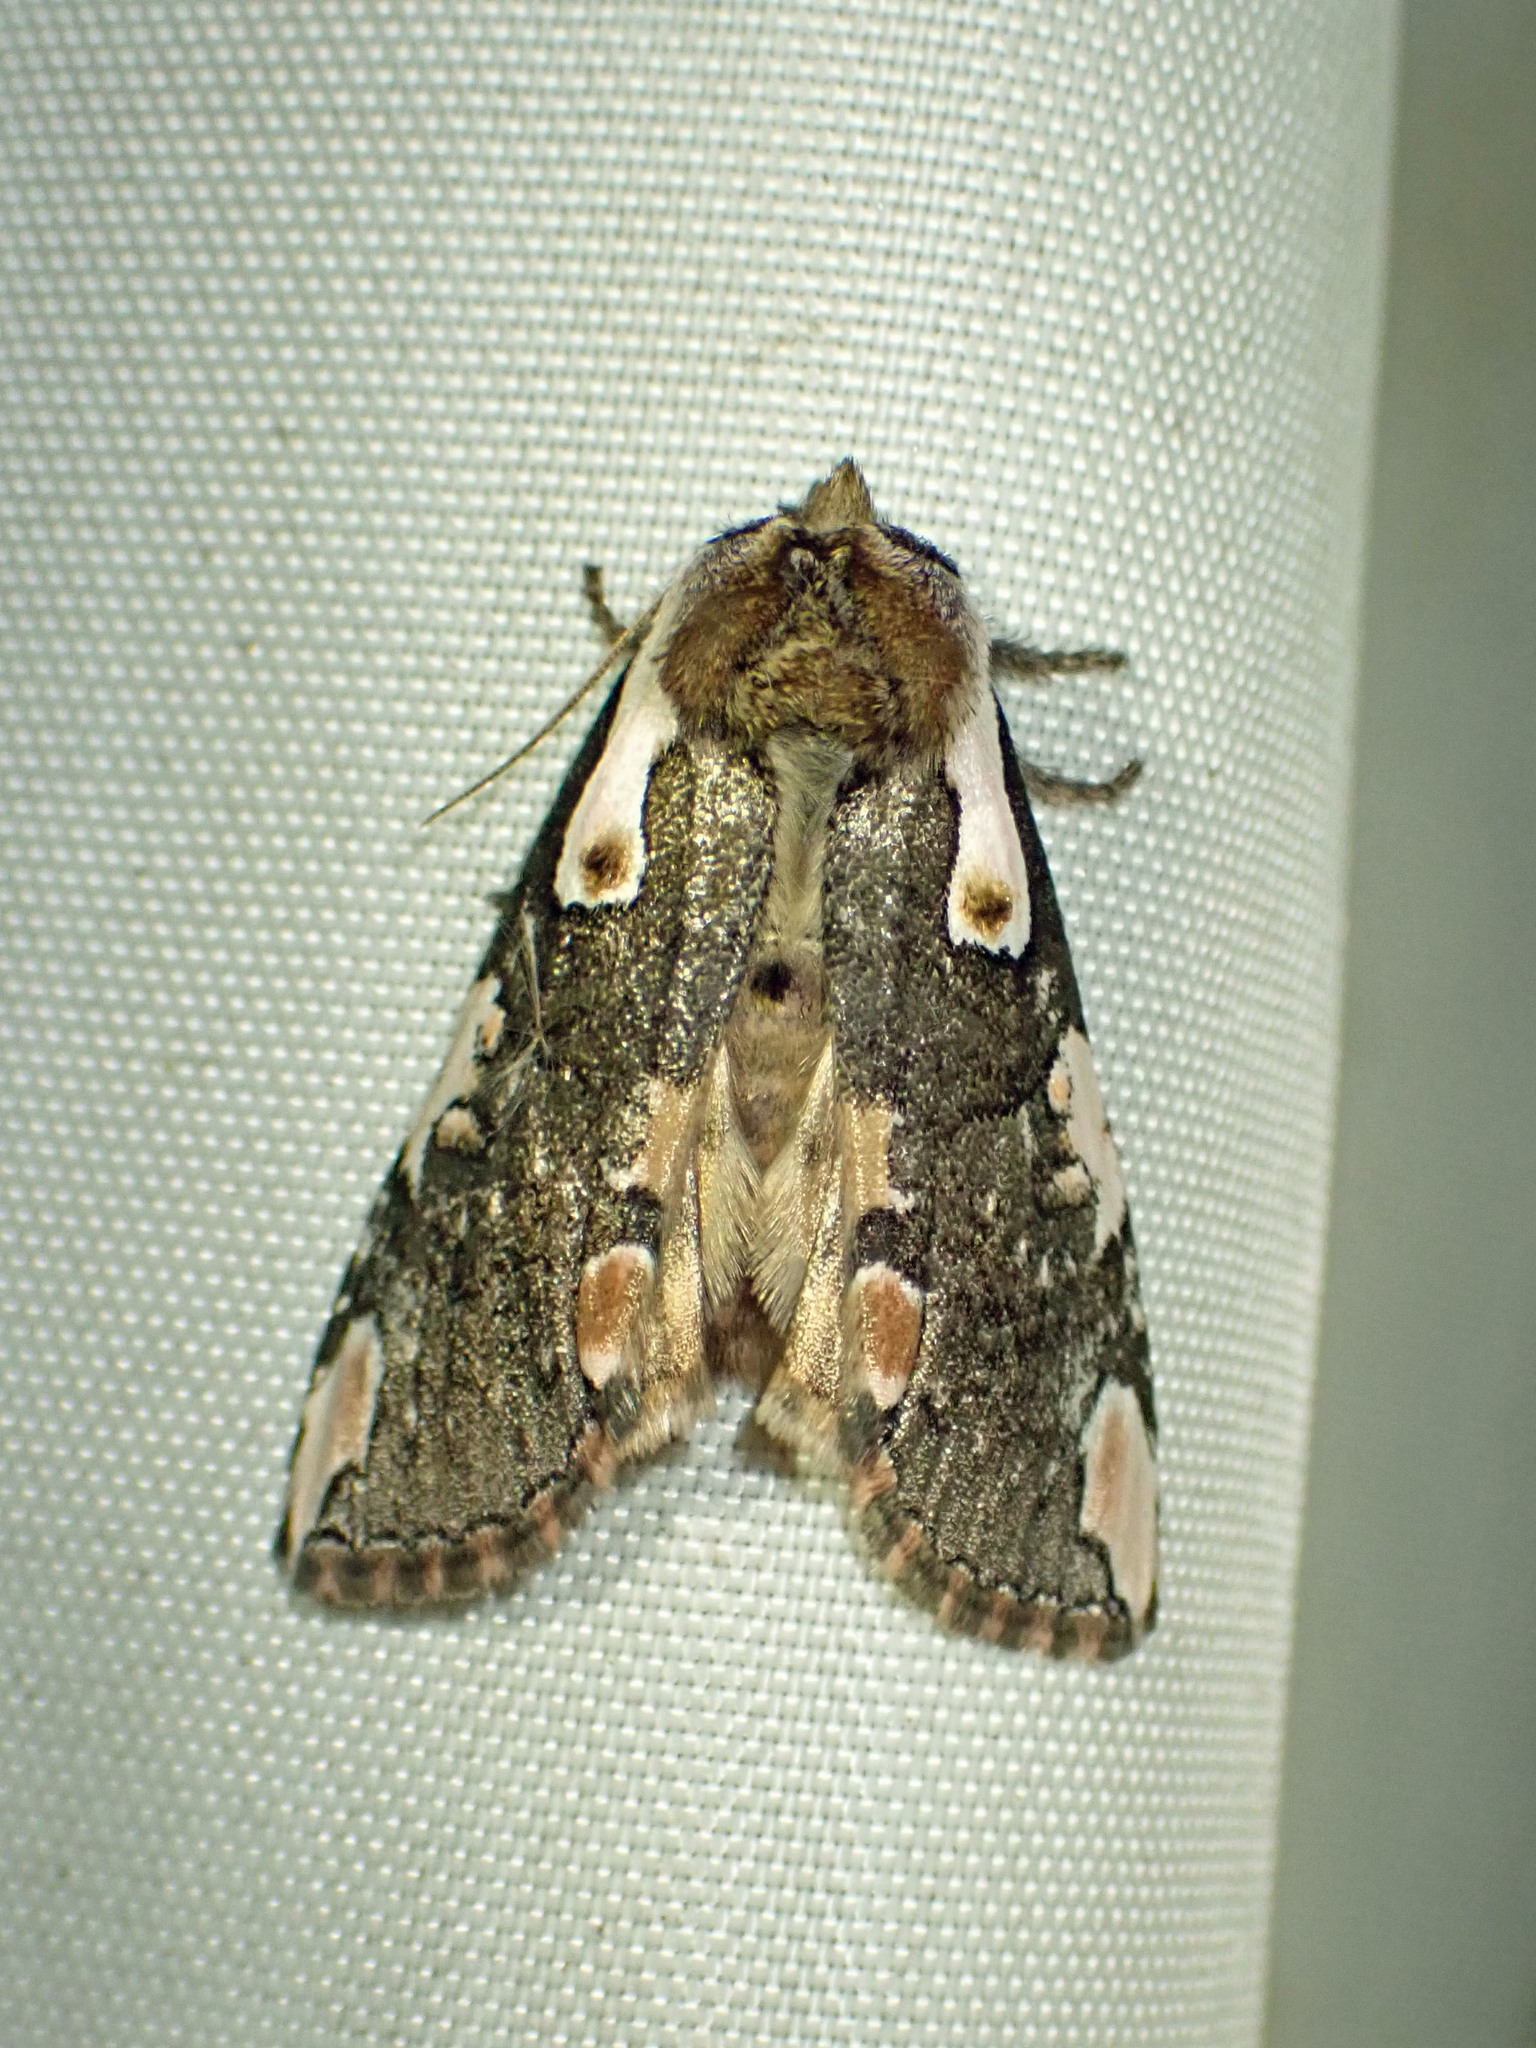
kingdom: Animalia
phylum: Arthropoda
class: Insecta
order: Lepidoptera
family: Drepanidae
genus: Euthyatira
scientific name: Euthyatira pudens
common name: Dogwood thyatirid moth
